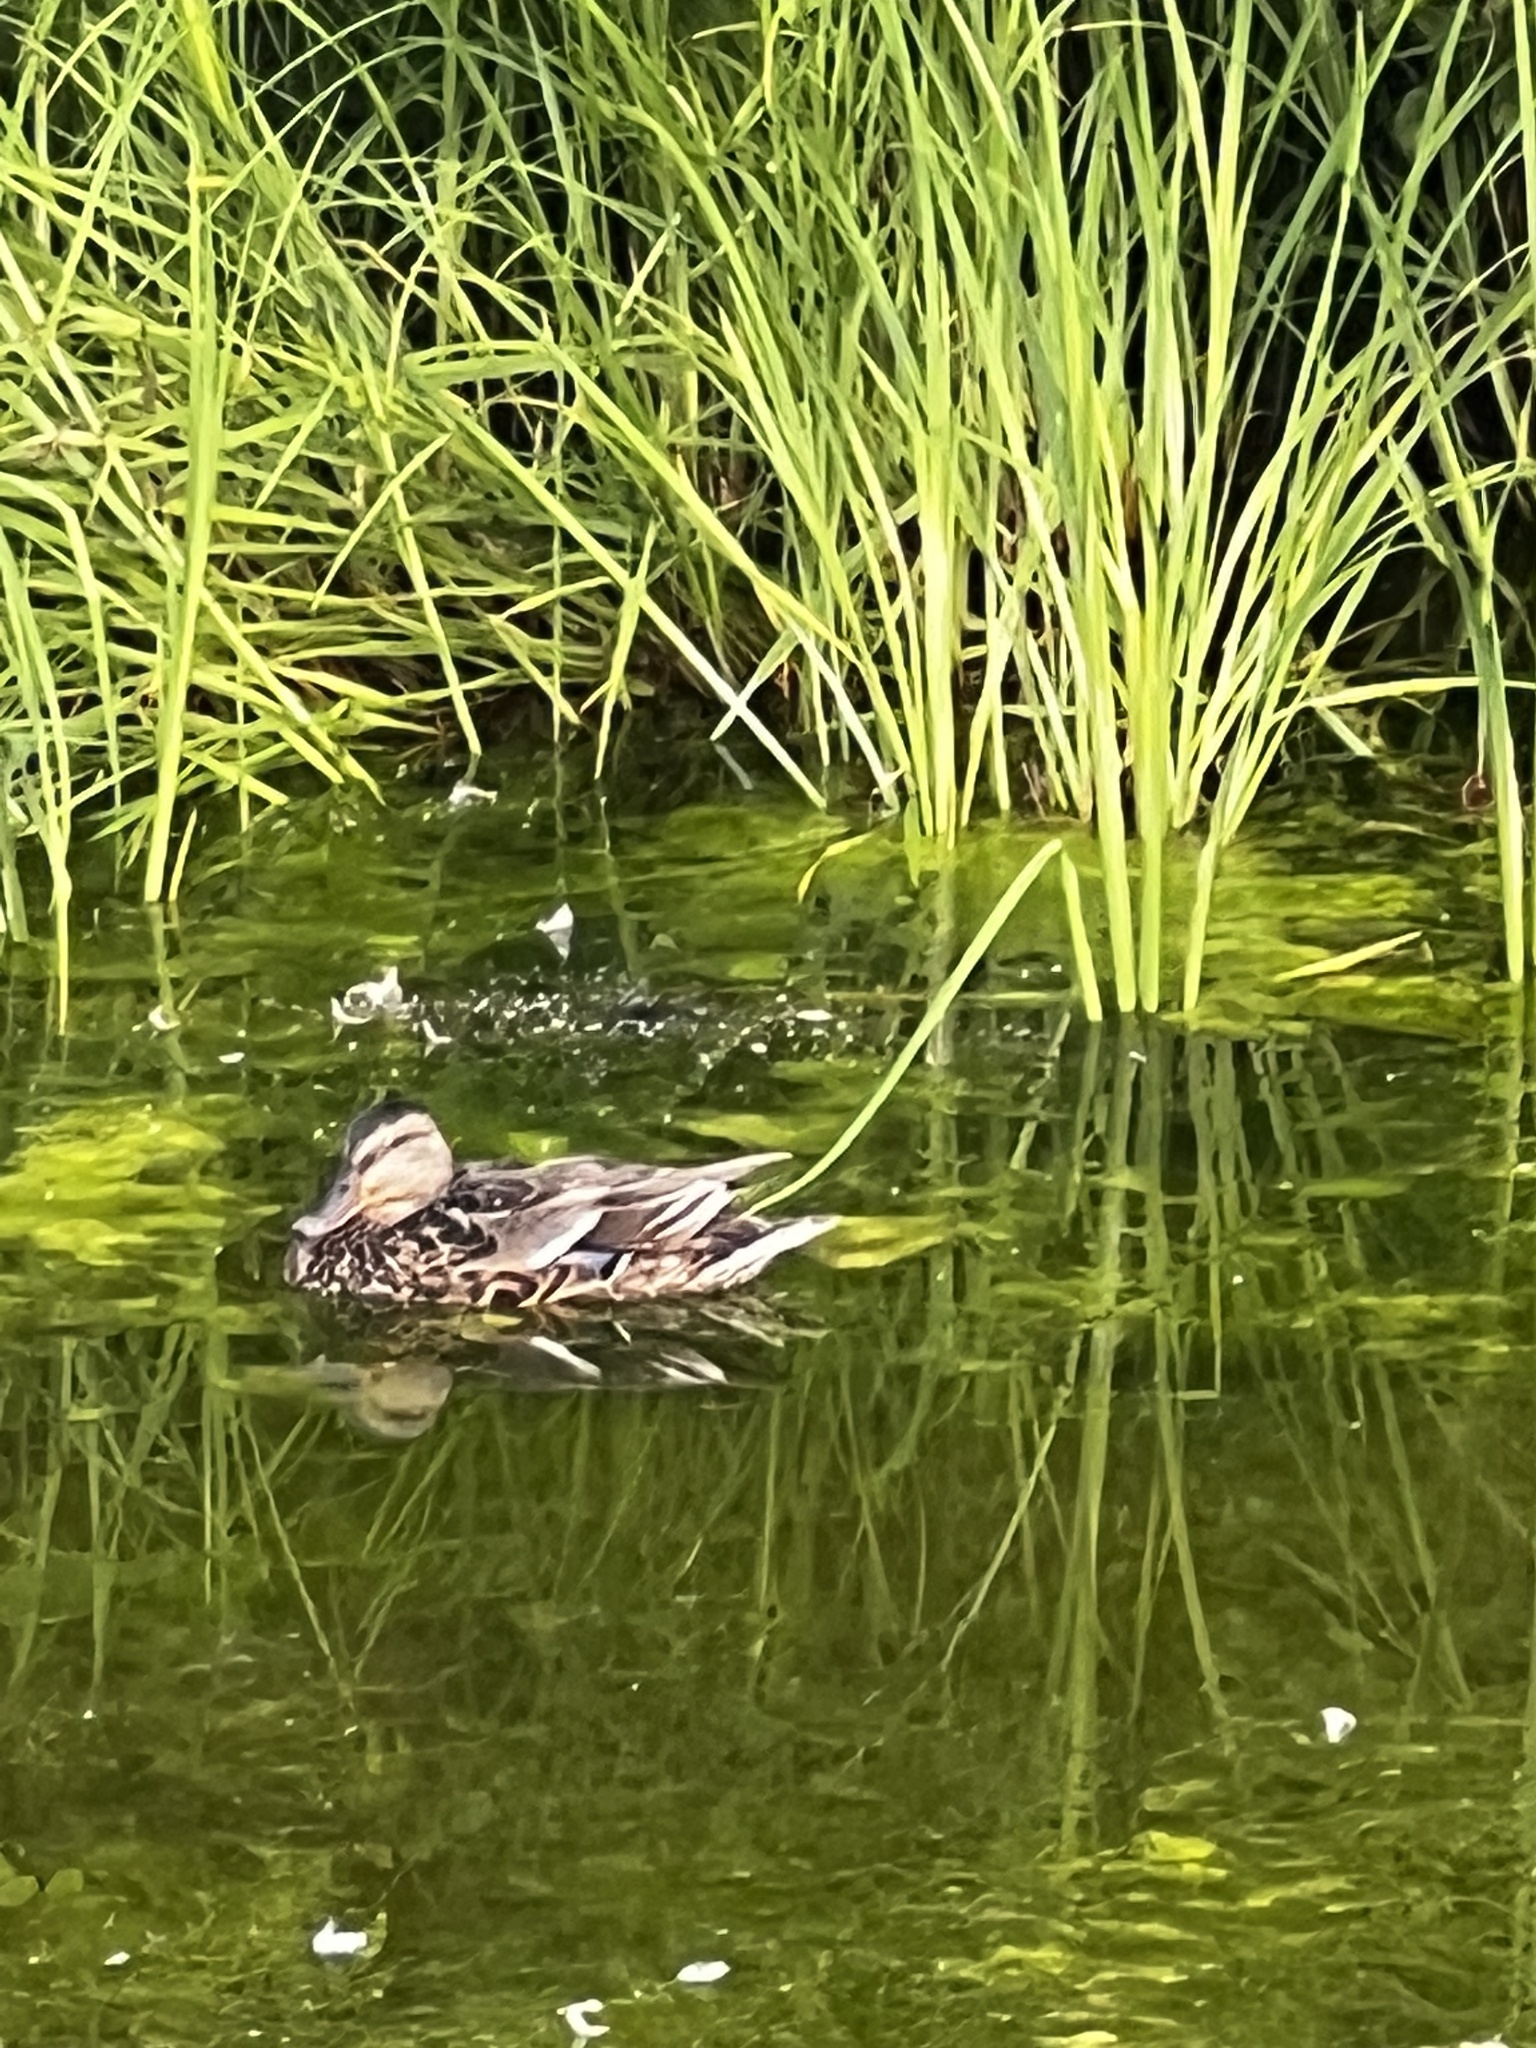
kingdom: Animalia
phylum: Chordata
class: Aves
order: Anseriformes
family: Anatidae
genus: Anas
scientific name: Anas platyrhynchos
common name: Mallard
